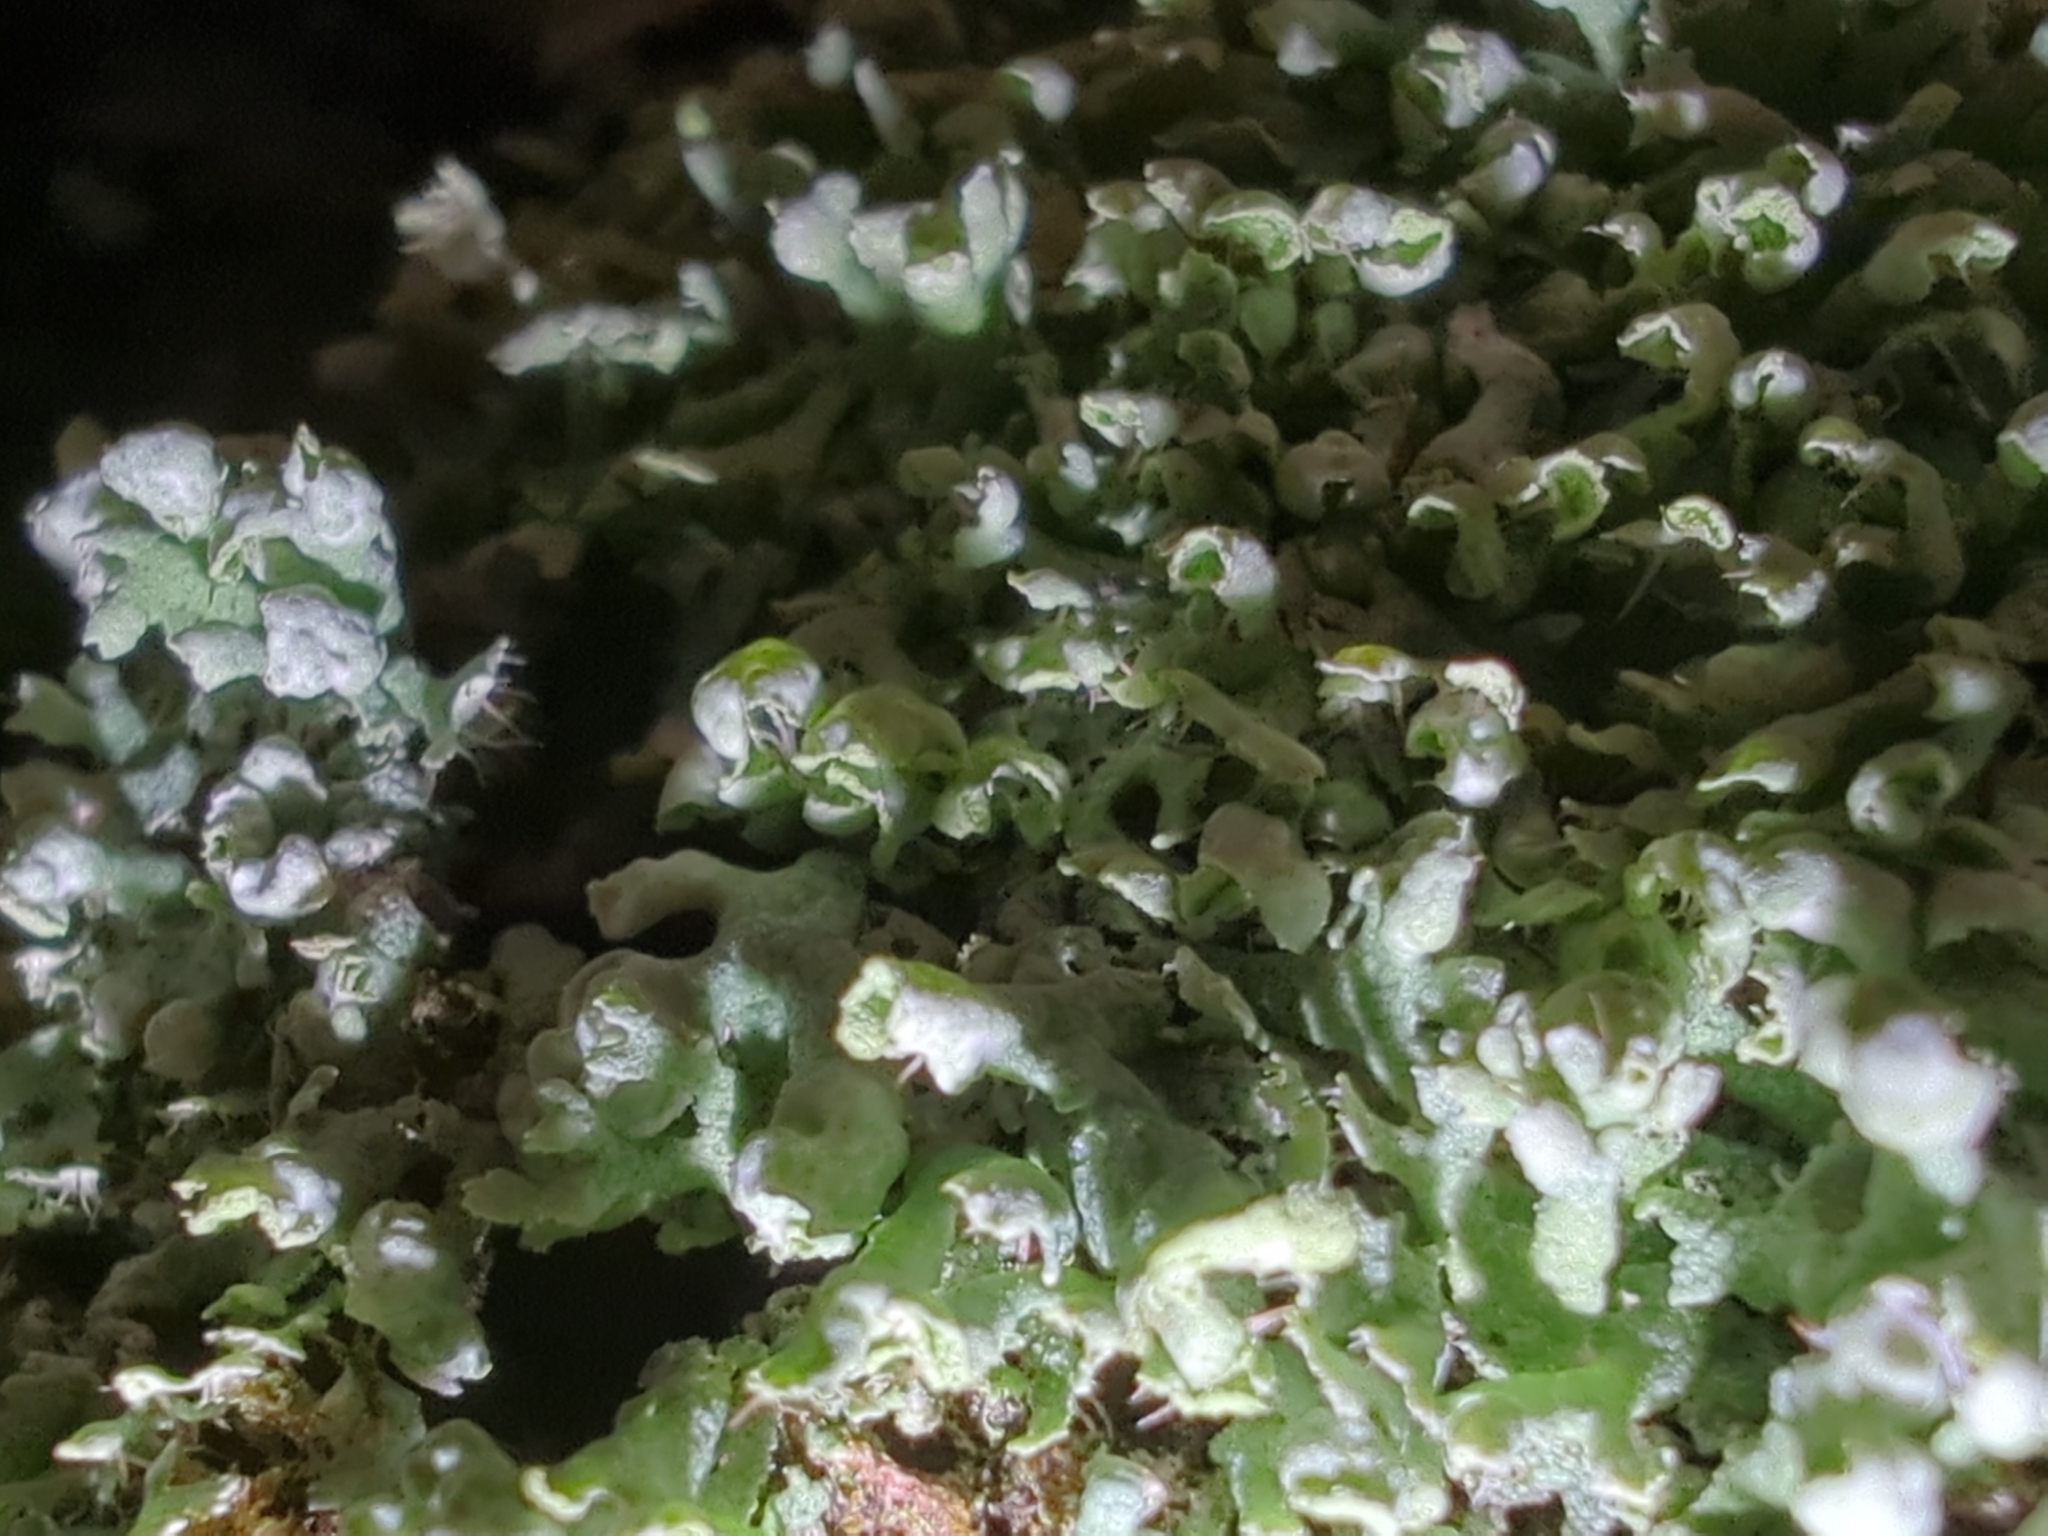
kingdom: Fungi
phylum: Ascomycota
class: Lecanoromycetes
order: Caliciales
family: Physciaceae
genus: Physcia
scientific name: Physcia adscendens
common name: Hooded rosette lichen
